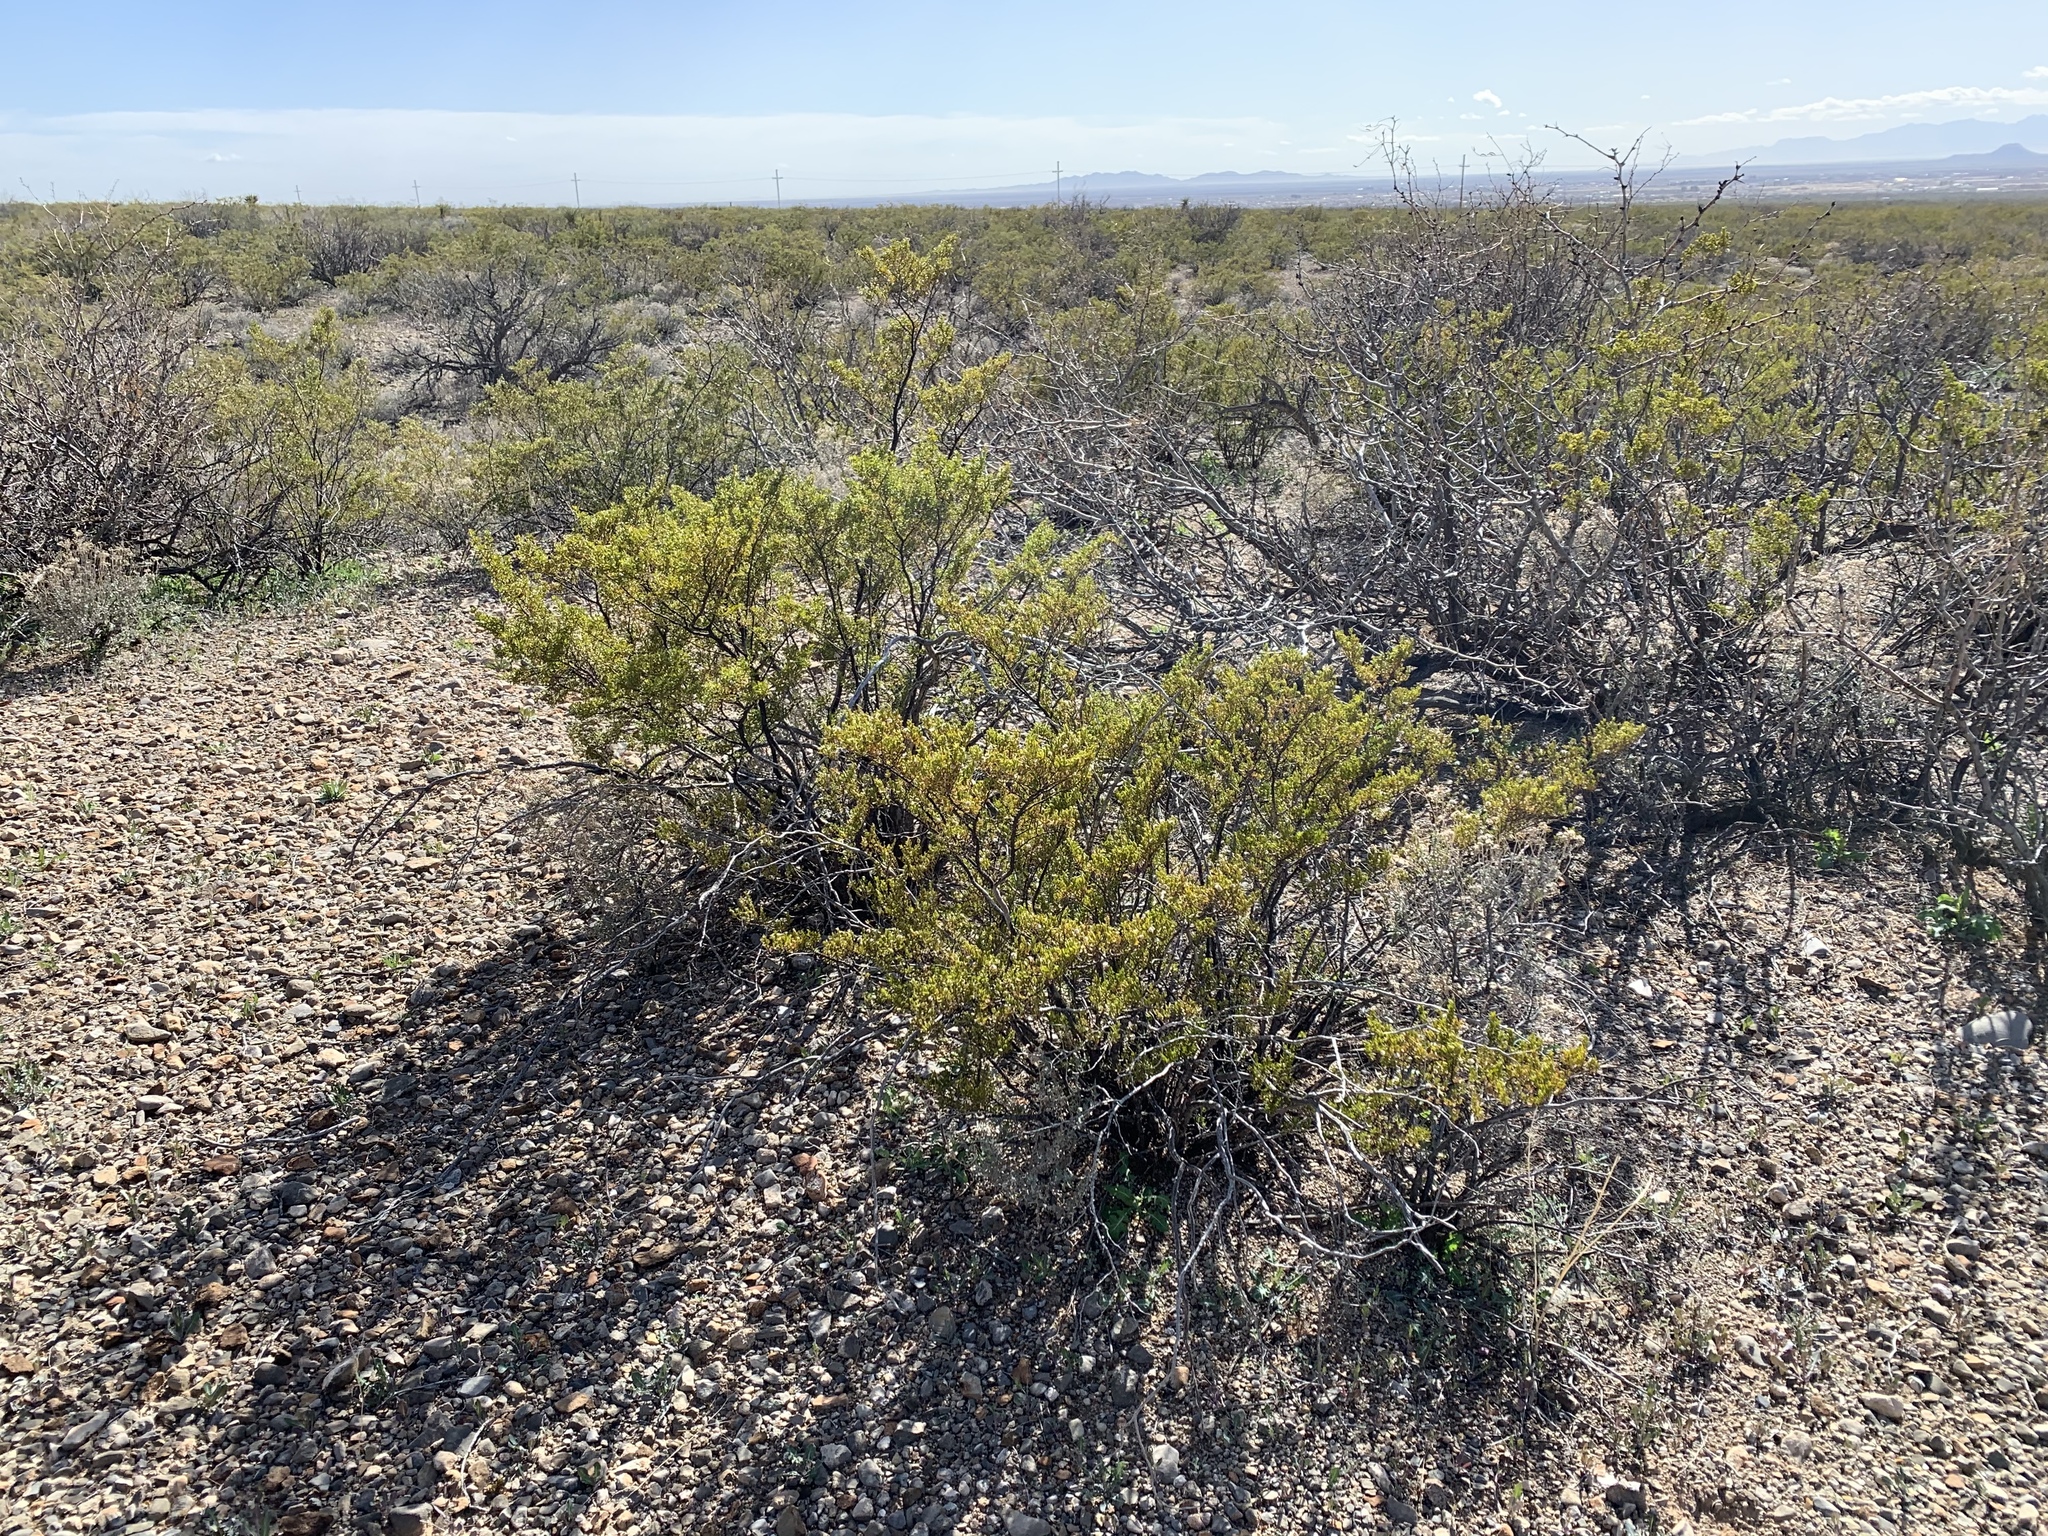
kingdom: Plantae
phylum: Tracheophyta
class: Magnoliopsida
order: Zygophyllales
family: Zygophyllaceae
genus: Larrea
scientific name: Larrea tridentata
